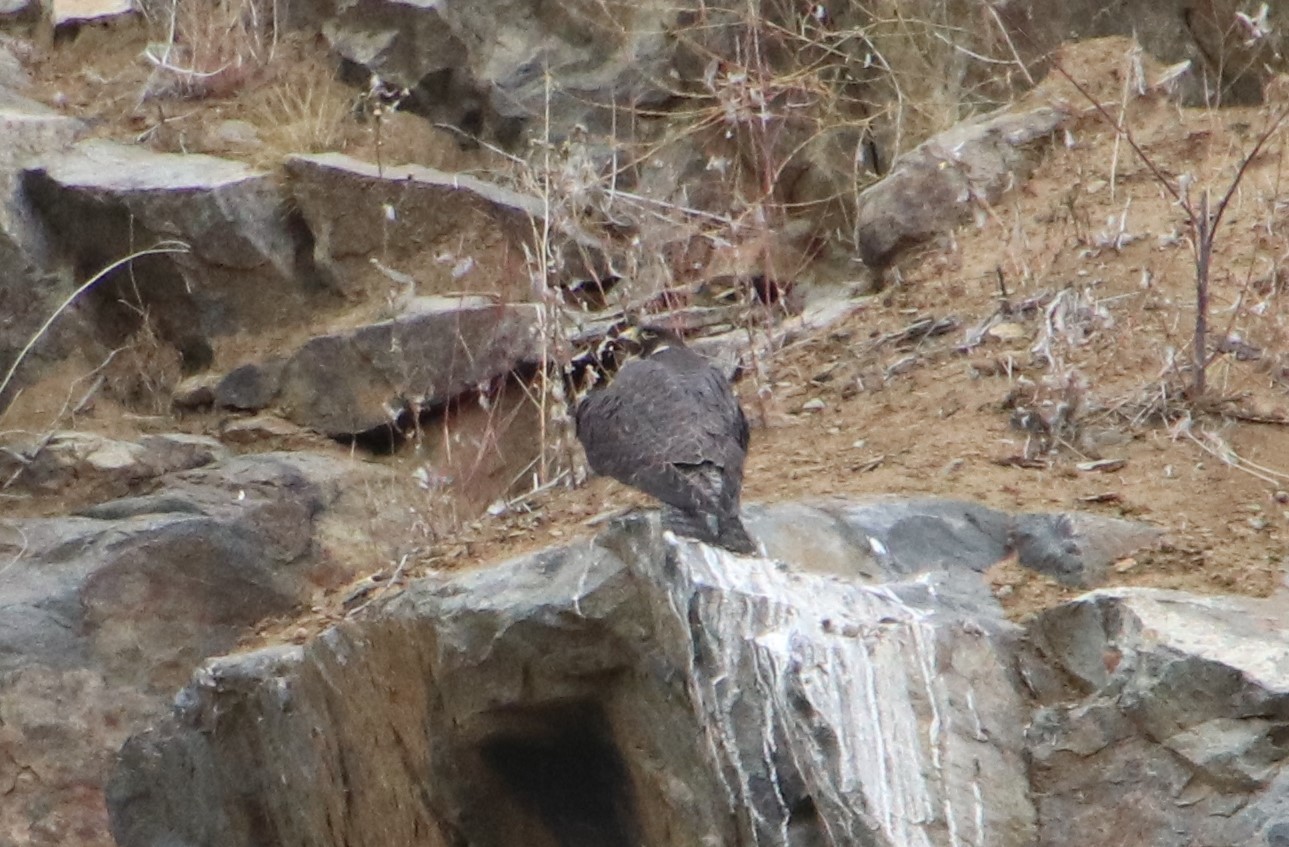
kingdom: Animalia
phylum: Chordata
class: Aves
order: Falconiformes
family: Falconidae
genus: Falco
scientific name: Falco peregrinus
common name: Peregrine falcon
